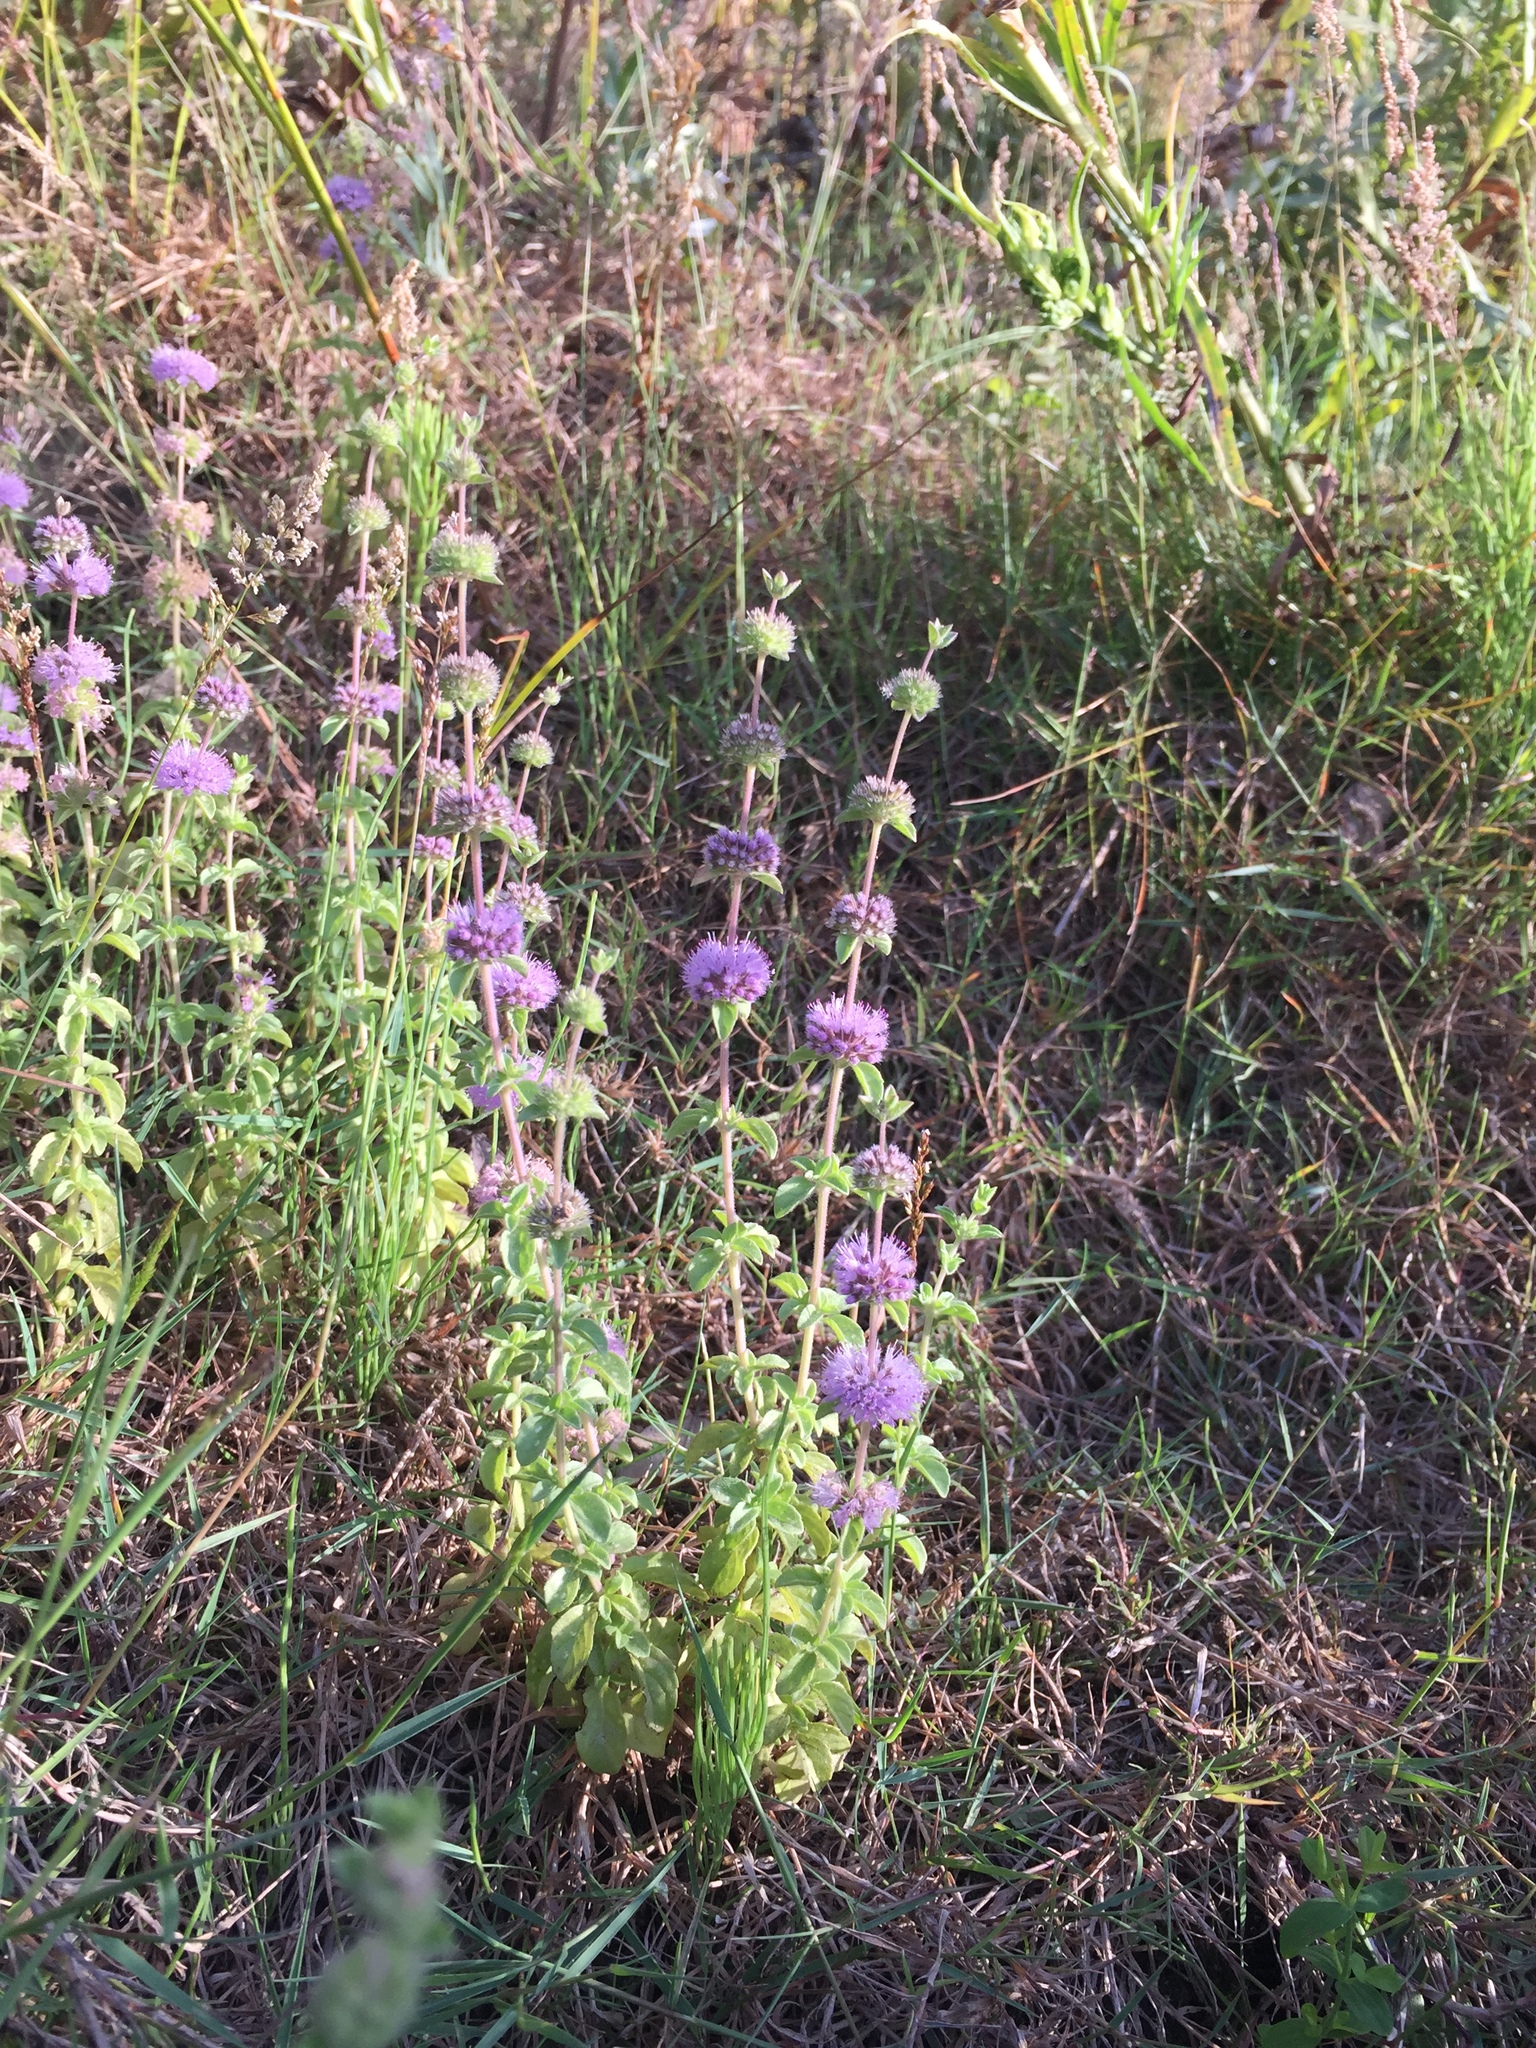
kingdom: Plantae
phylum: Tracheophyta
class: Magnoliopsida
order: Lamiales
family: Lamiaceae
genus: Mentha
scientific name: Mentha pulegium
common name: Pennyroyal
